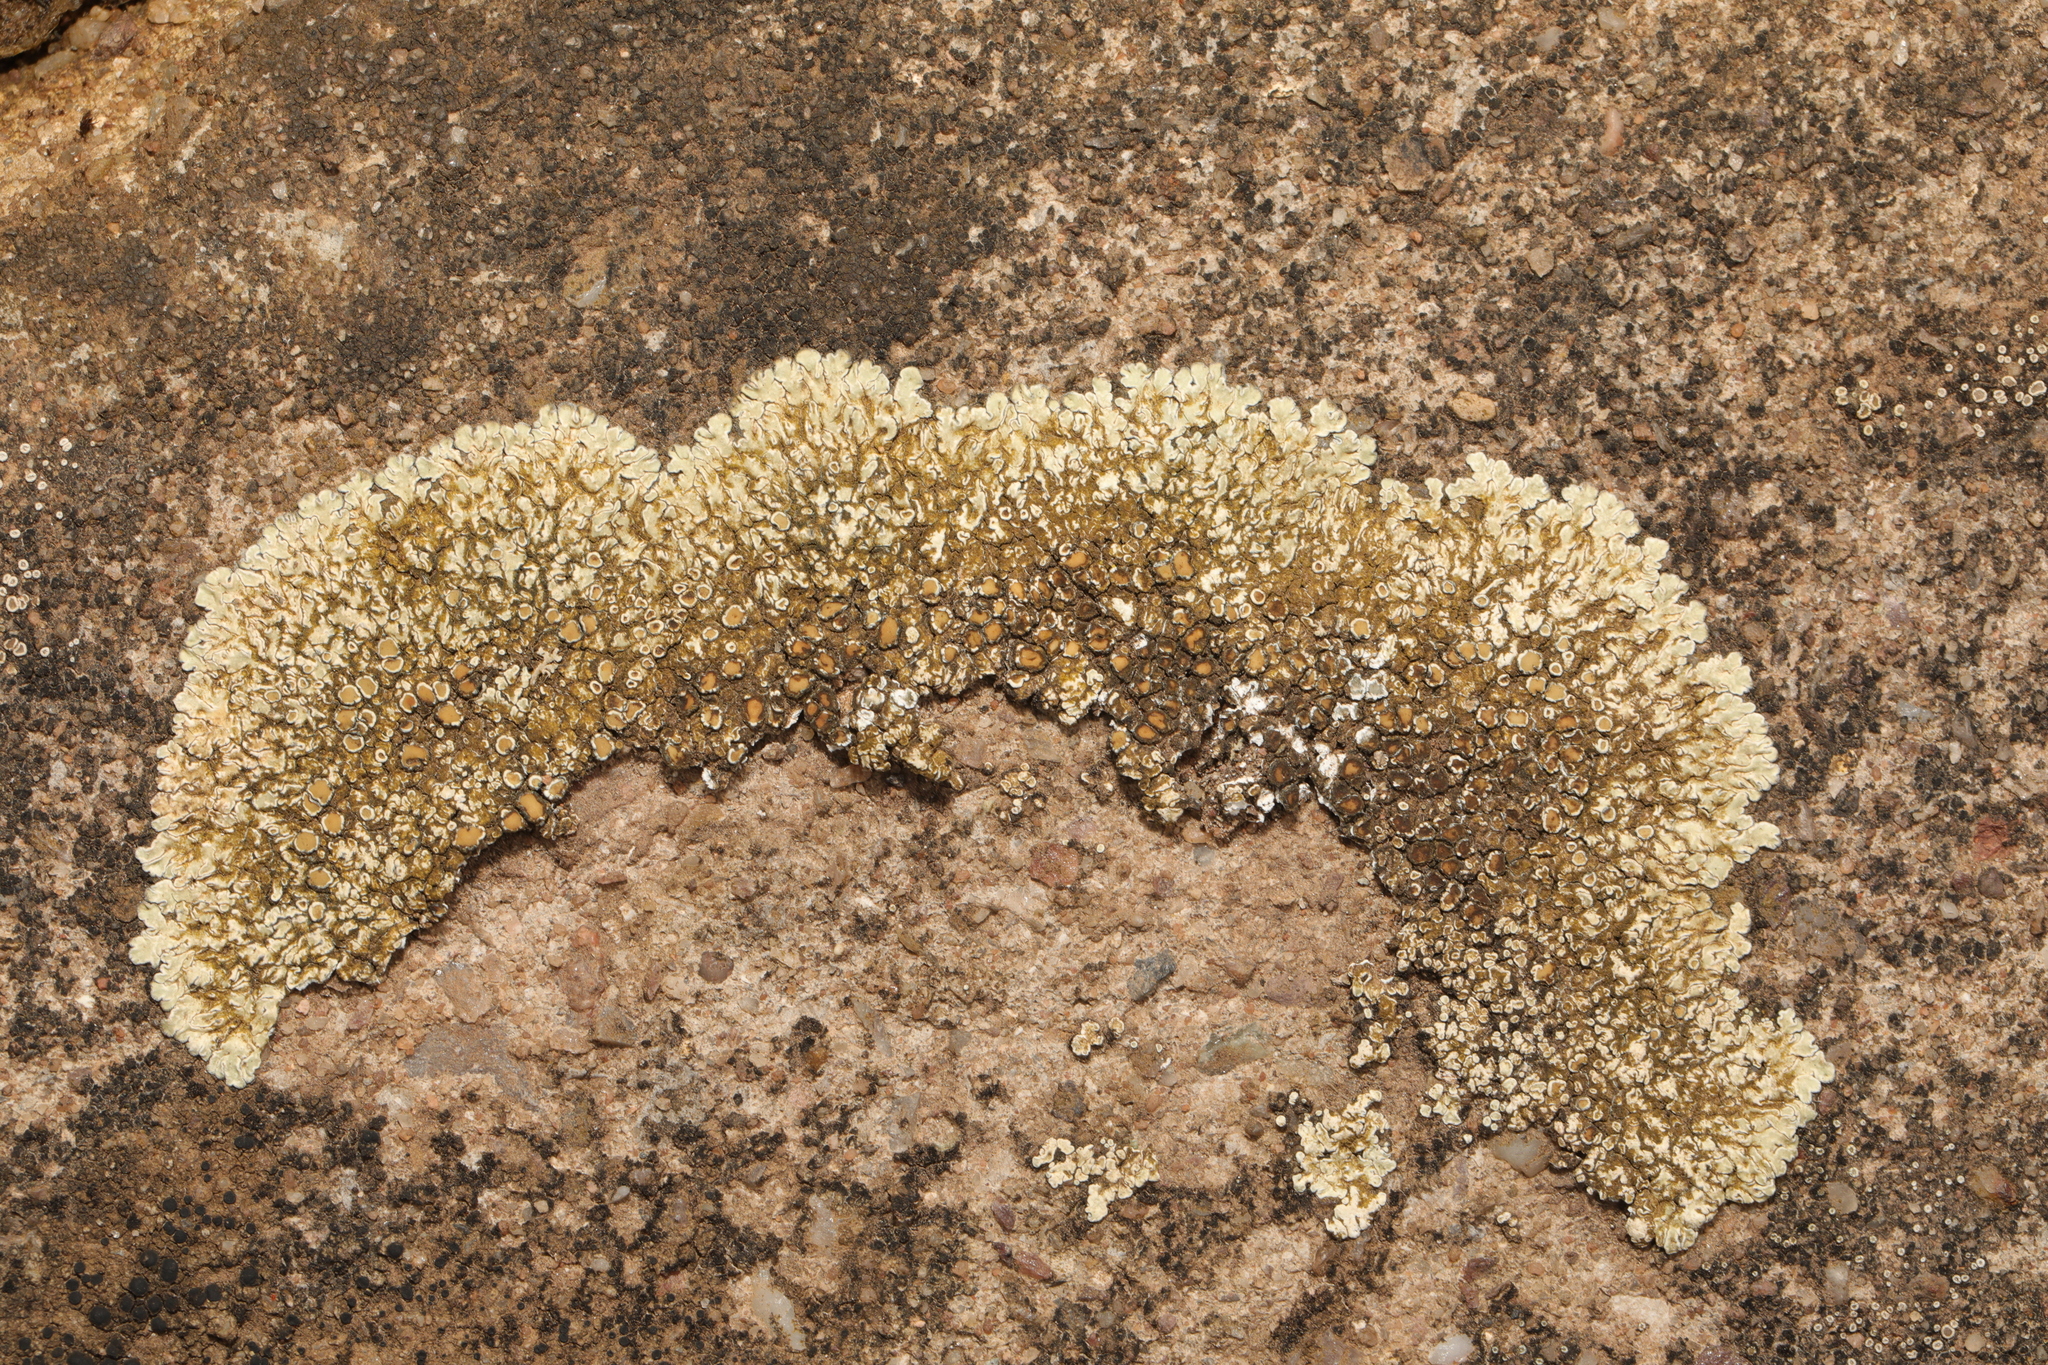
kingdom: Fungi
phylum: Ascomycota
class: Lecanoromycetes
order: Lecanorales
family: Lecanoraceae
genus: Protoparmeliopsis
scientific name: Protoparmeliopsis muralis
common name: Stonewall rim lichen
